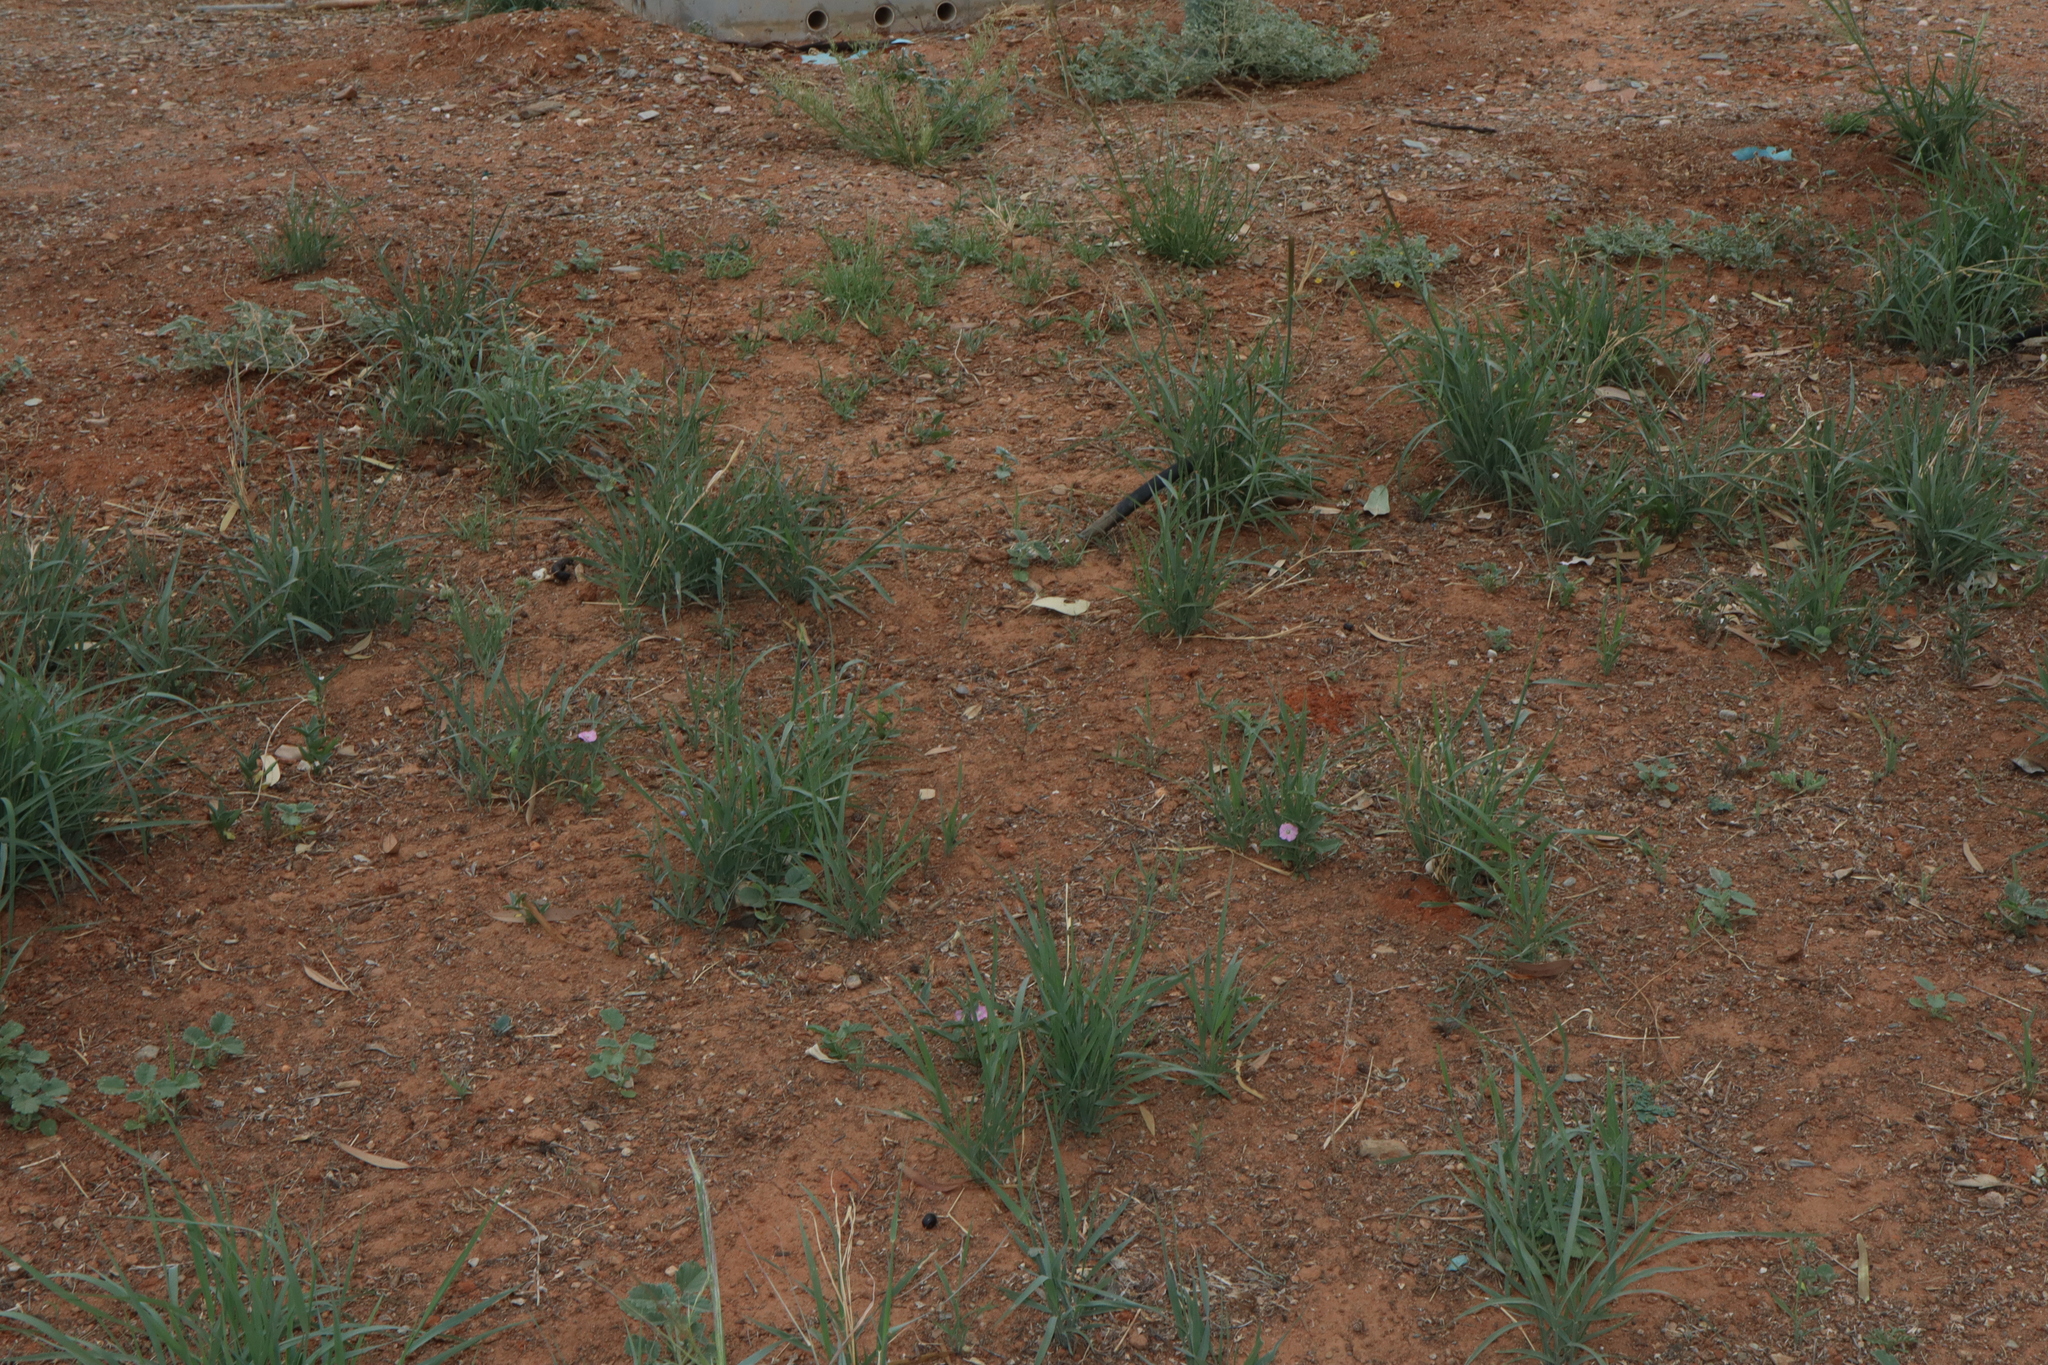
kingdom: Plantae
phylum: Tracheophyta
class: Liliopsida
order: Poales
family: Poaceae
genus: Enteropogon
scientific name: Enteropogon acicularis
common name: Curly windmill grass
